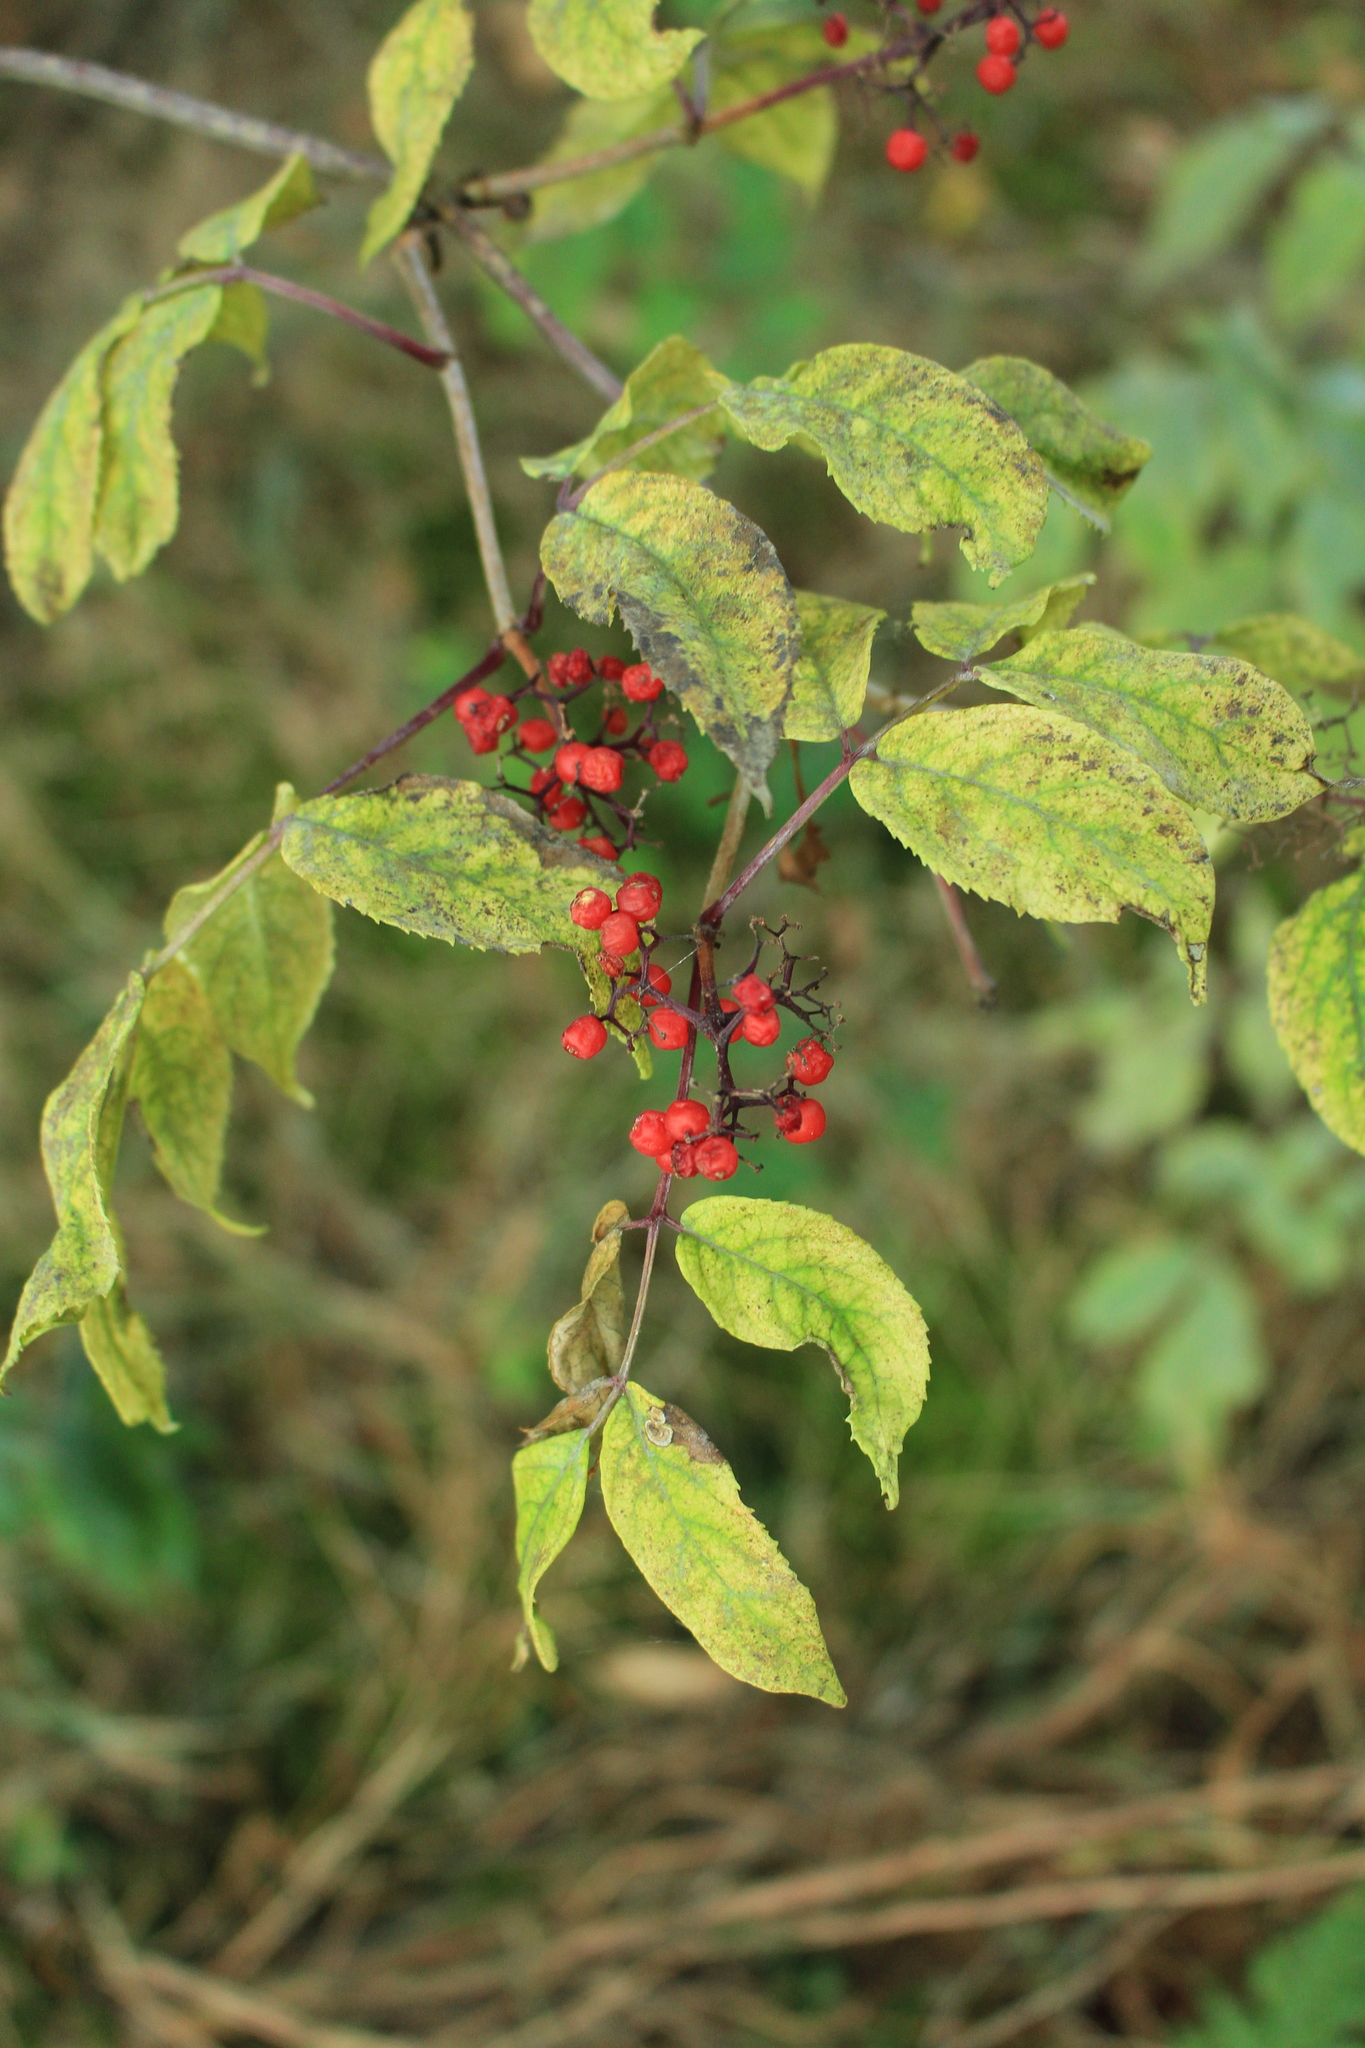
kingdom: Plantae
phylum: Tracheophyta
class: Magnoliopsida
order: Dipsacales
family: Viburnaceae
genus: Sambucus
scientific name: Sambucus racemosa
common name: Red-berried elder
